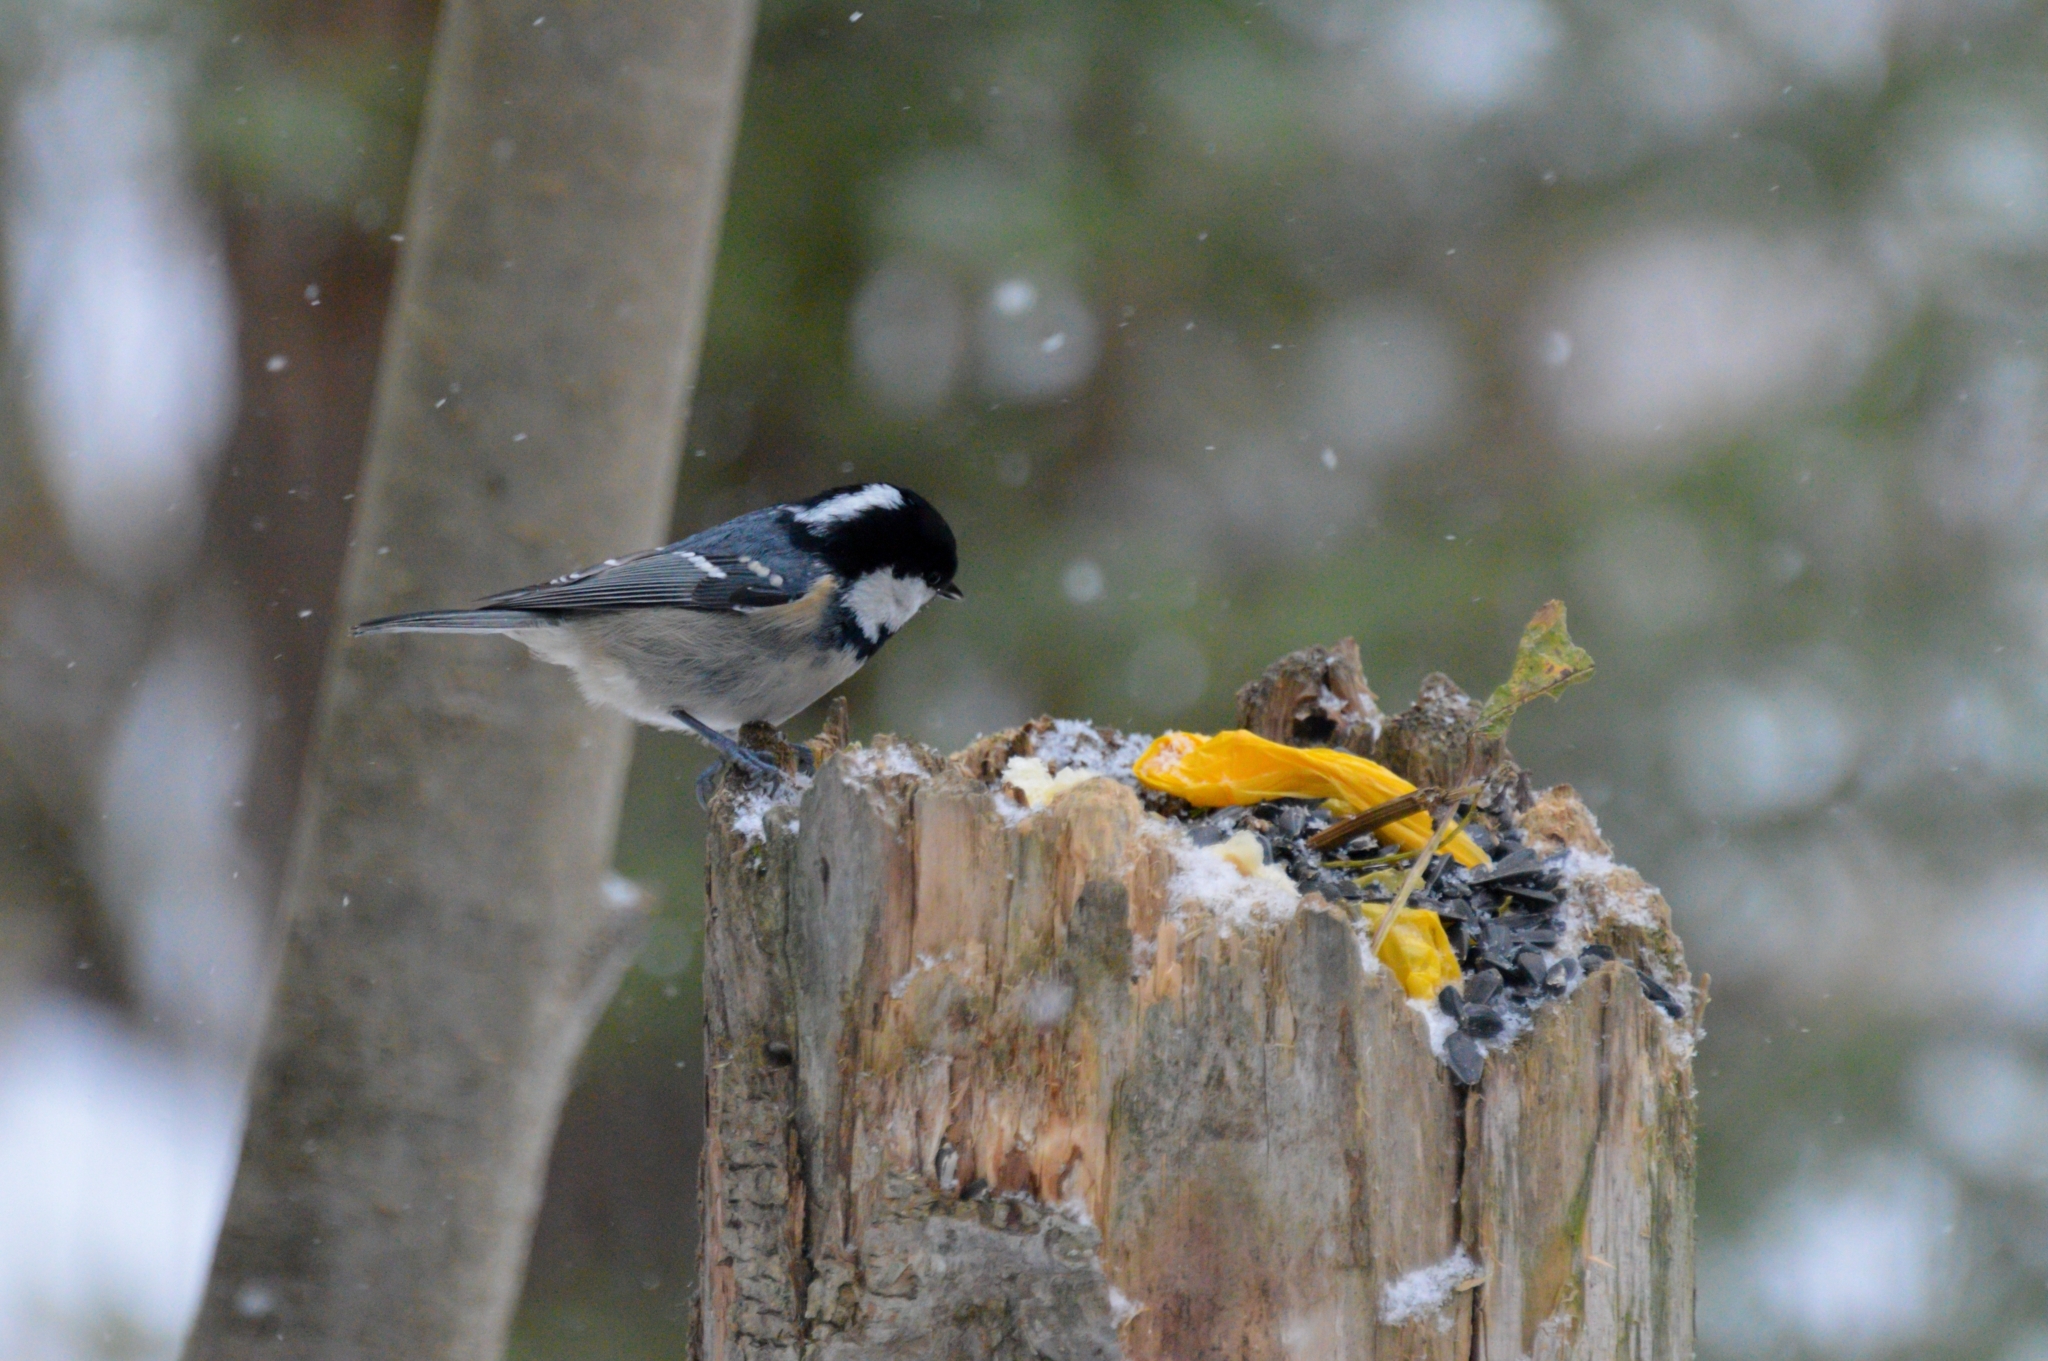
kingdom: Animalia
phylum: Chordata
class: Aves
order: Passeriformes
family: Paridae
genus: Periparus
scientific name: Periparus ater
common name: Coal tit
